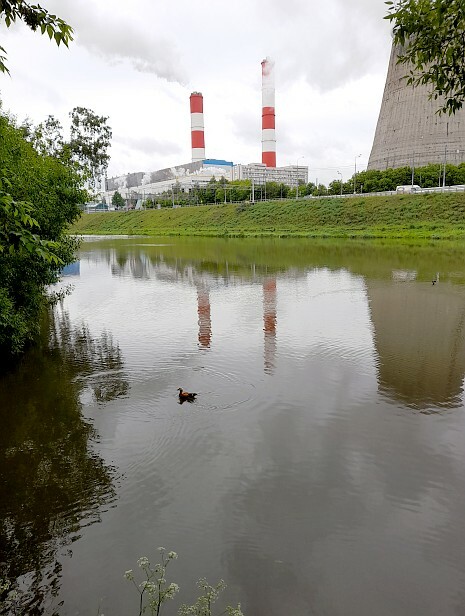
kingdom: Animalia
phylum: Chordata
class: Aves
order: Anseriformes
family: Anatidae
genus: Tadorna
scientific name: Tadorna ferruginea
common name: Ruddy shelduck
